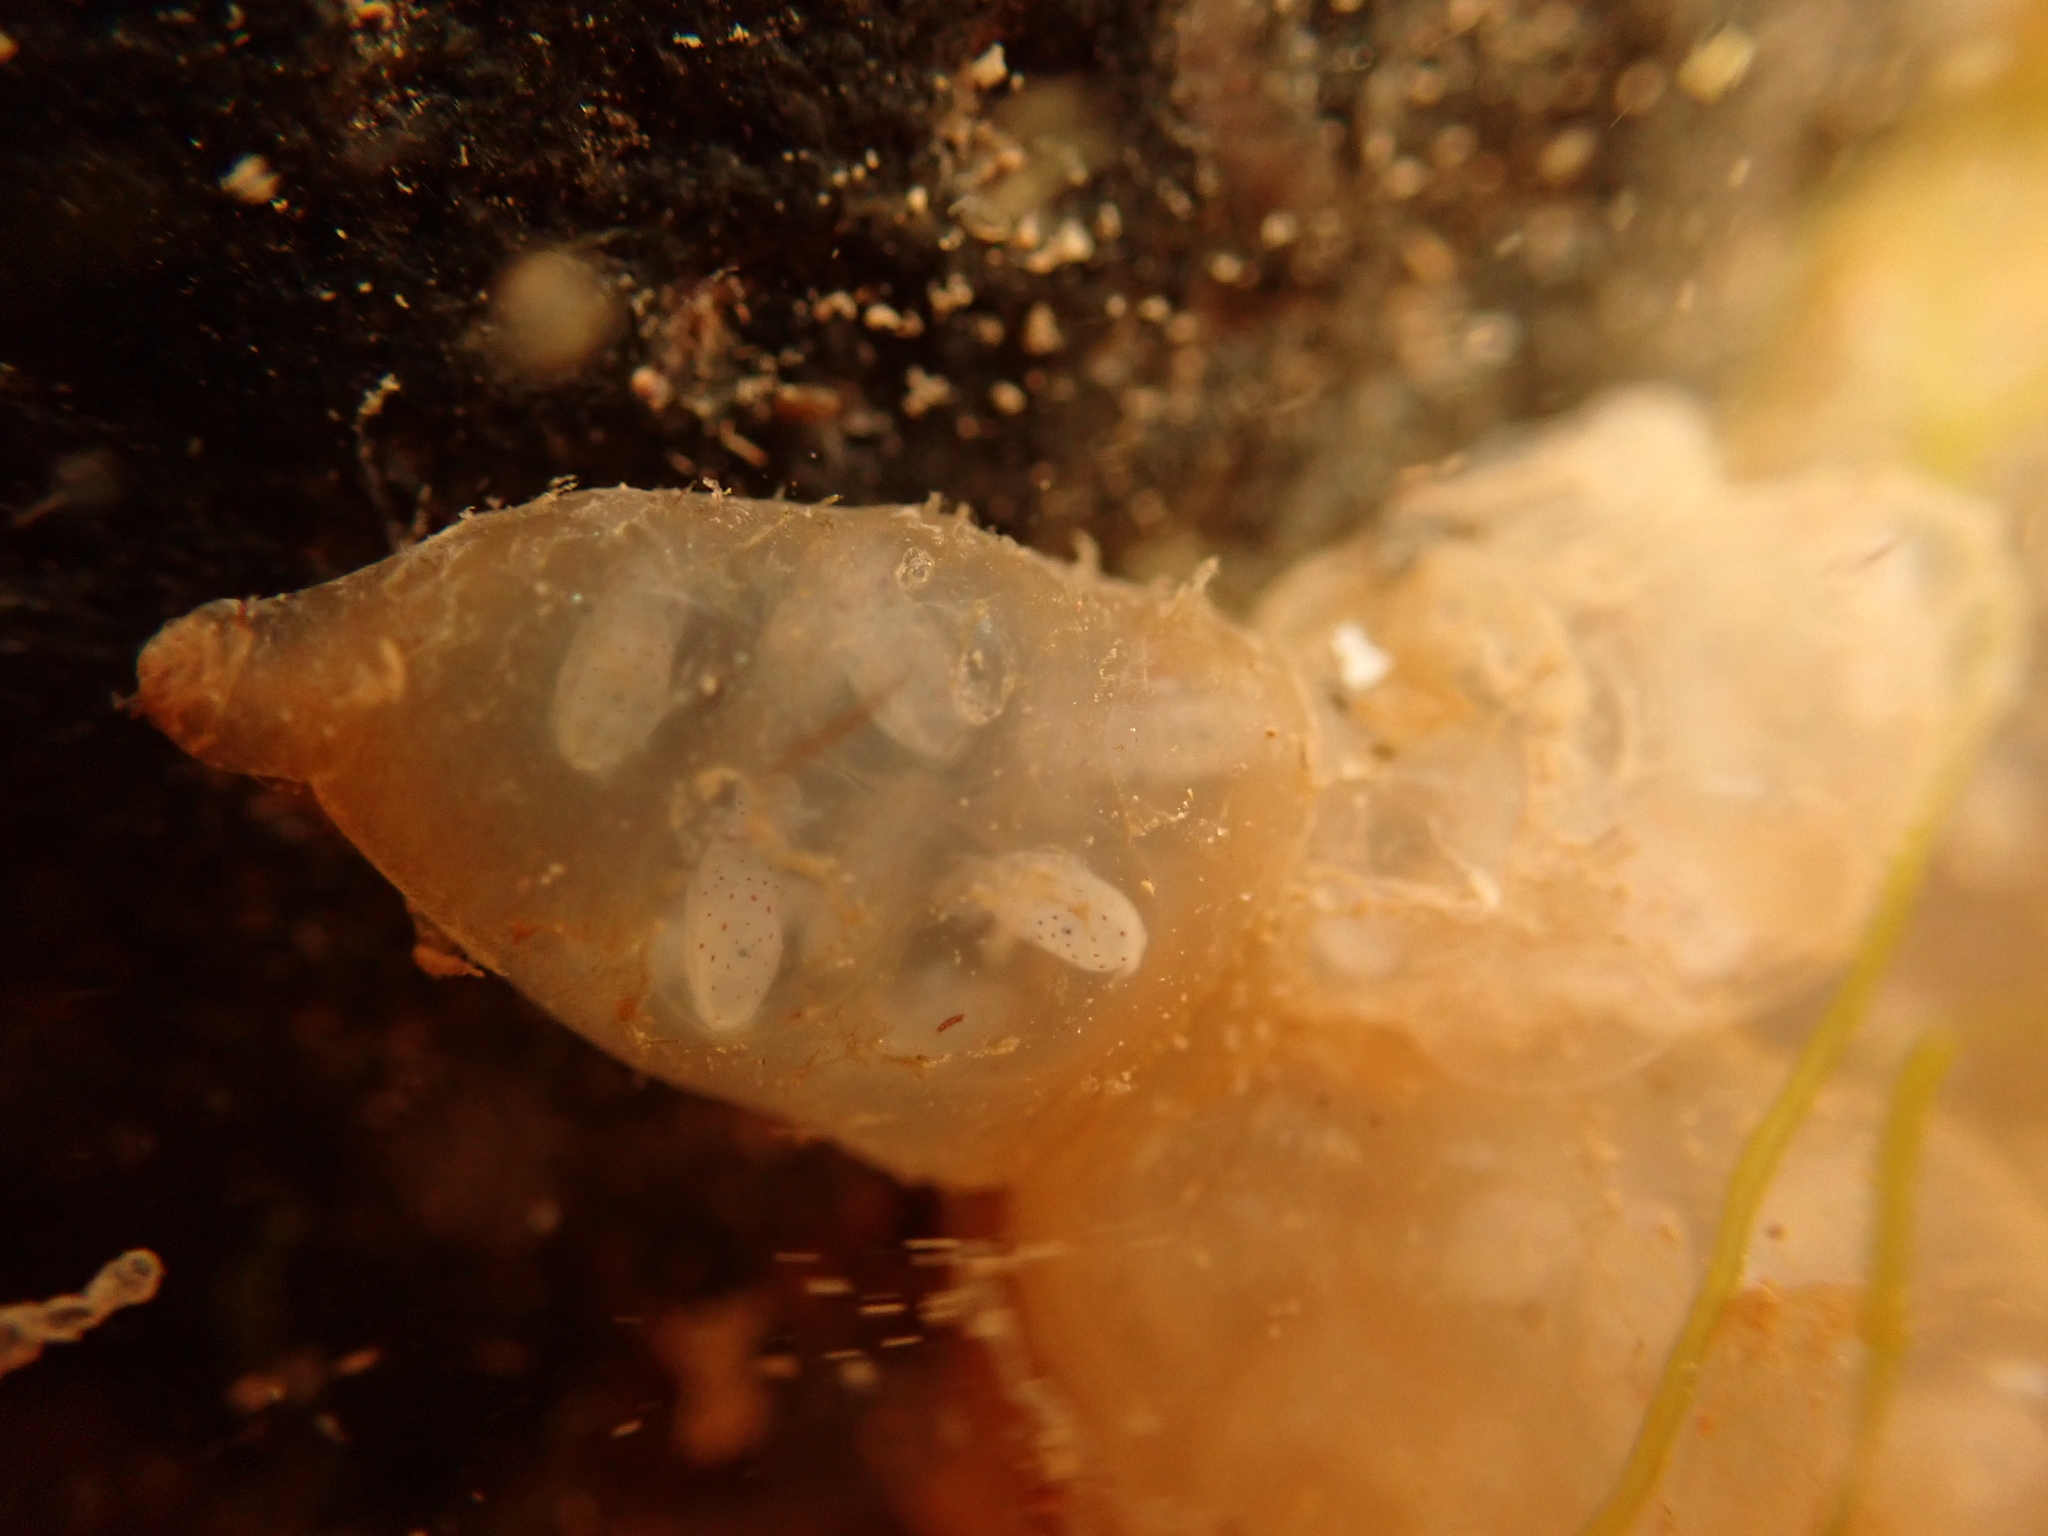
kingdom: Animalia
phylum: Mollusca
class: Cephalopoda
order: Myopsida
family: Loliginidae
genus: Doryteuthis
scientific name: Doryteuthis pealeii
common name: Long-finned inshore squid
